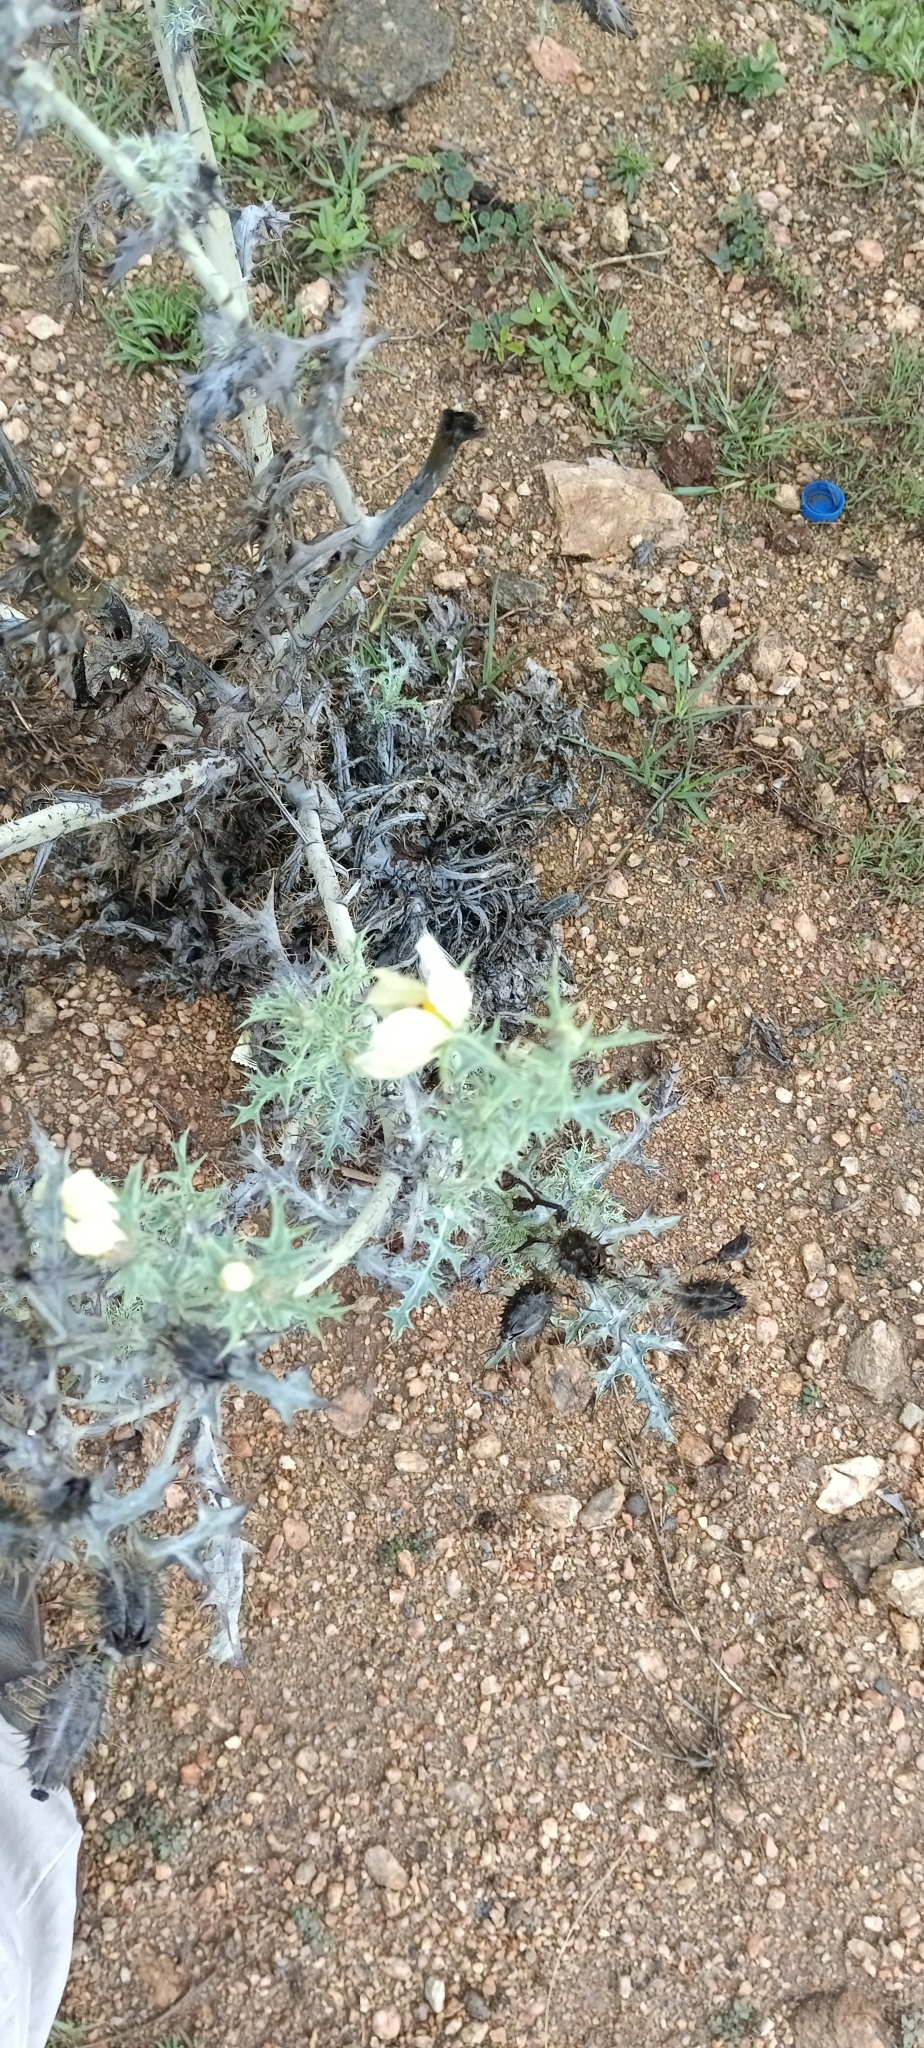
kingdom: Plantae
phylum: Tracheophyta
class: Magnoliopsida
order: Ranunculales
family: Papaveraceae
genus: Argemone
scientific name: Argemone ochroleuca
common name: White-flower mexican-poppy
